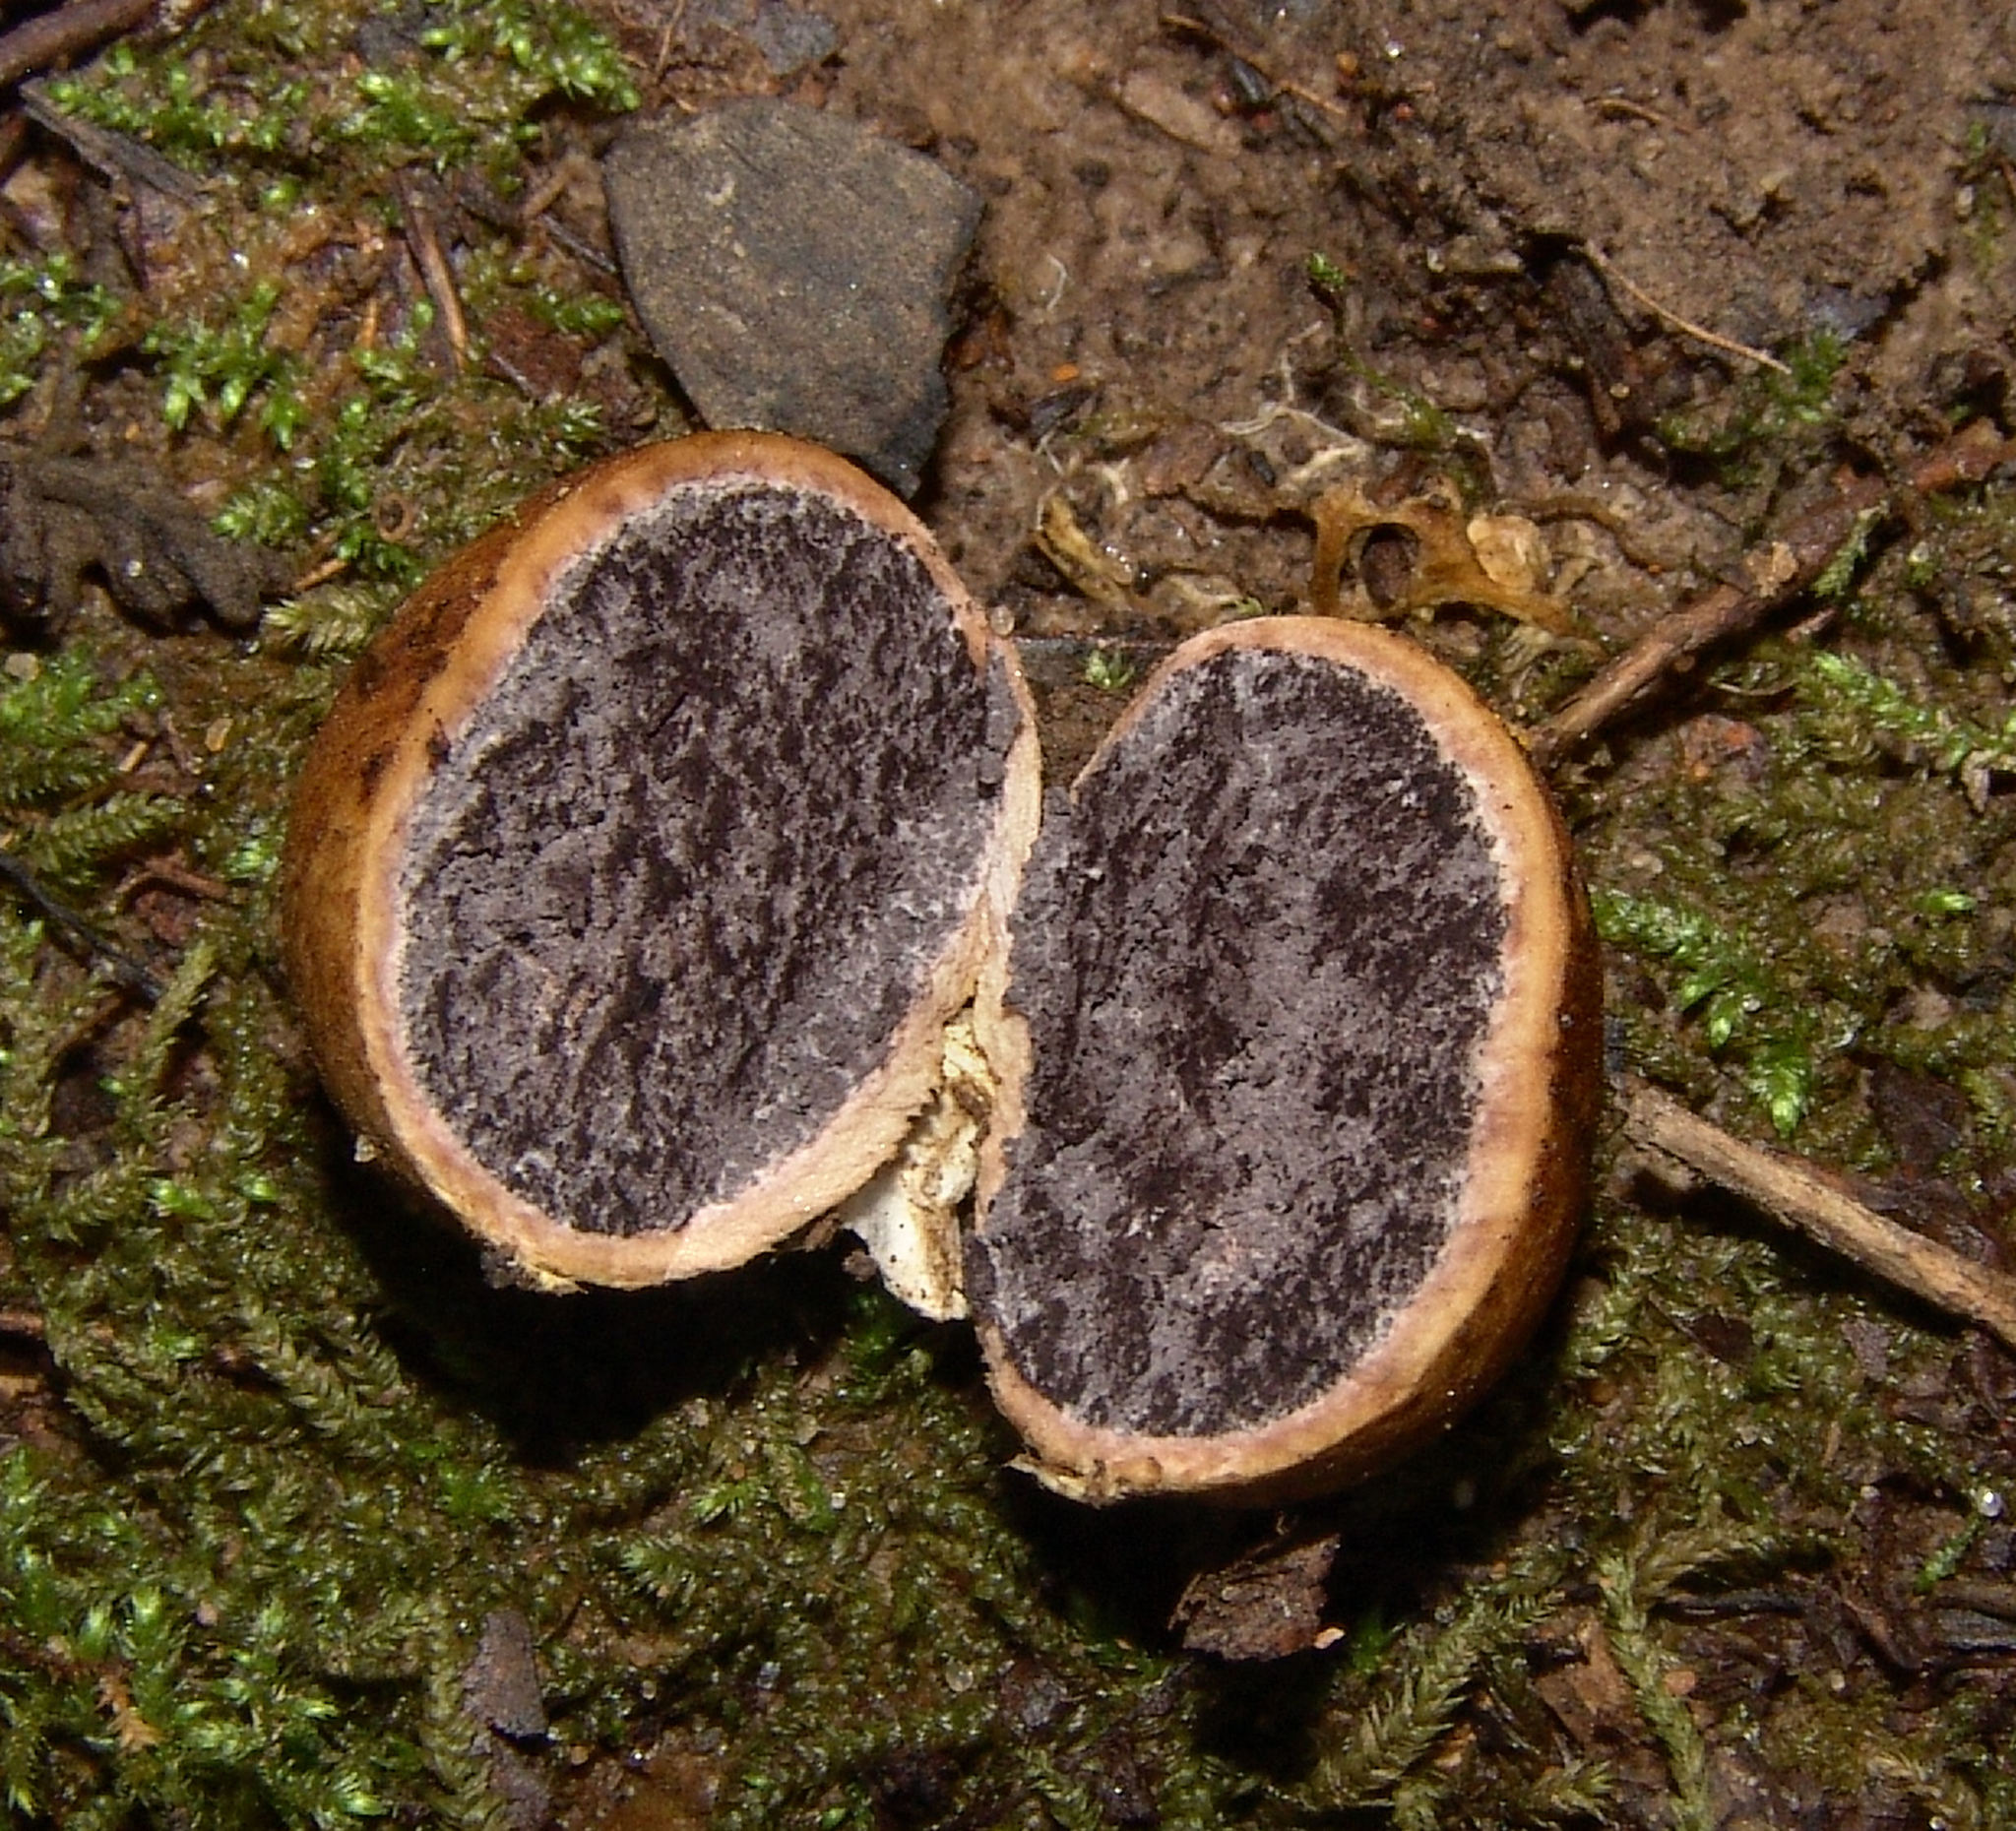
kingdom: Fungi
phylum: Basidiomycota
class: Agaricomycetes
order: Boletales
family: Sclerodermataceae
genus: Scleroderma
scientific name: Scleroderma
